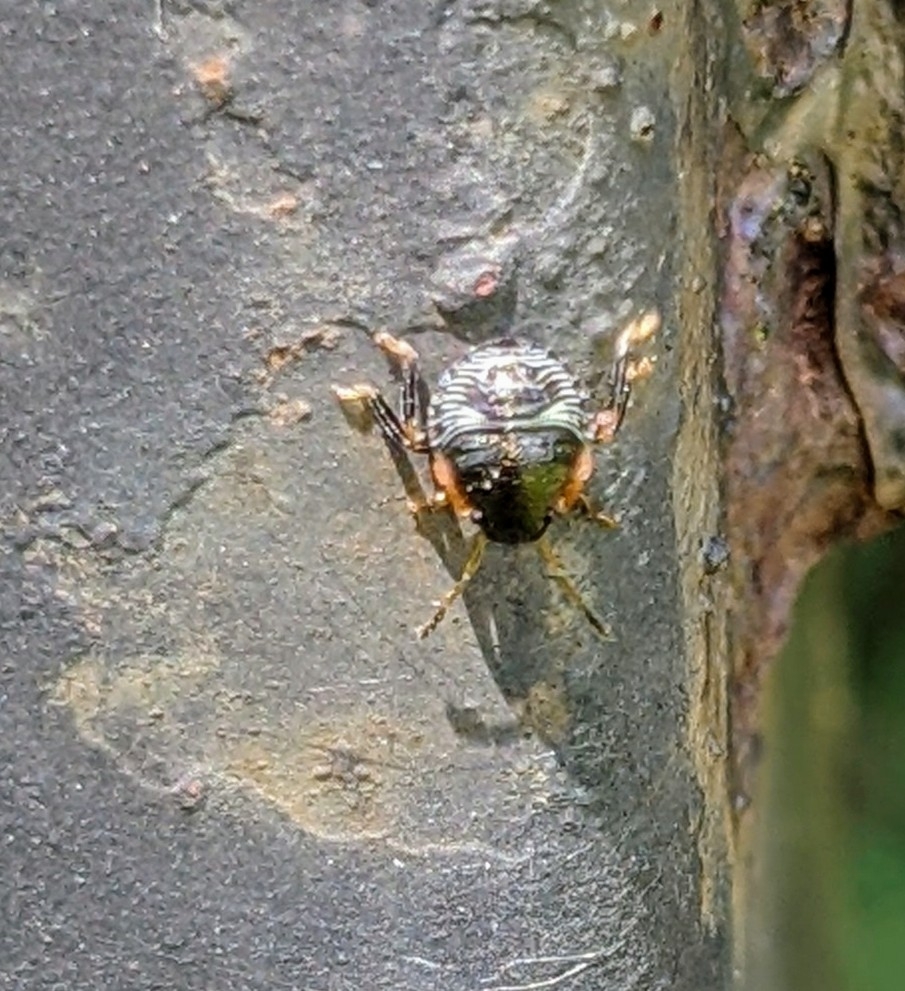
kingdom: Animalia
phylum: Arthropoda
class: Insecta
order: Hemiptera
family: Pentatomidae
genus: Chinavia
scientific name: Chinavia hilaris
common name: Green stink bug
